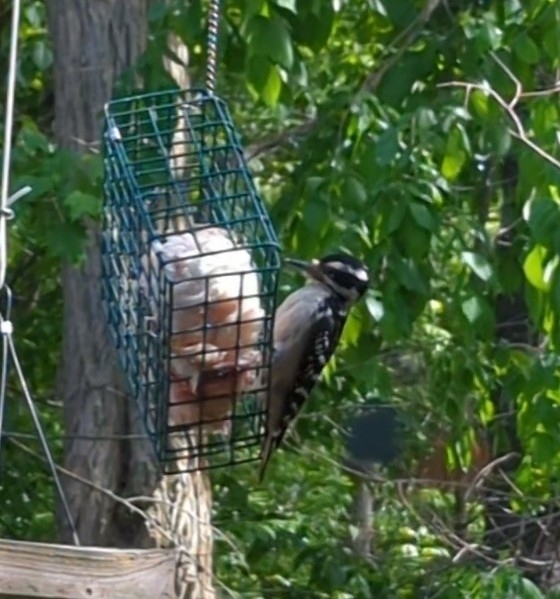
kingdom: Animalia
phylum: Chordata
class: Aves
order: Piciformes
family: Picidae
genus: Leuconotopicus
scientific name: Leuconotopicus villosus
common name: Hairy woodpecker
